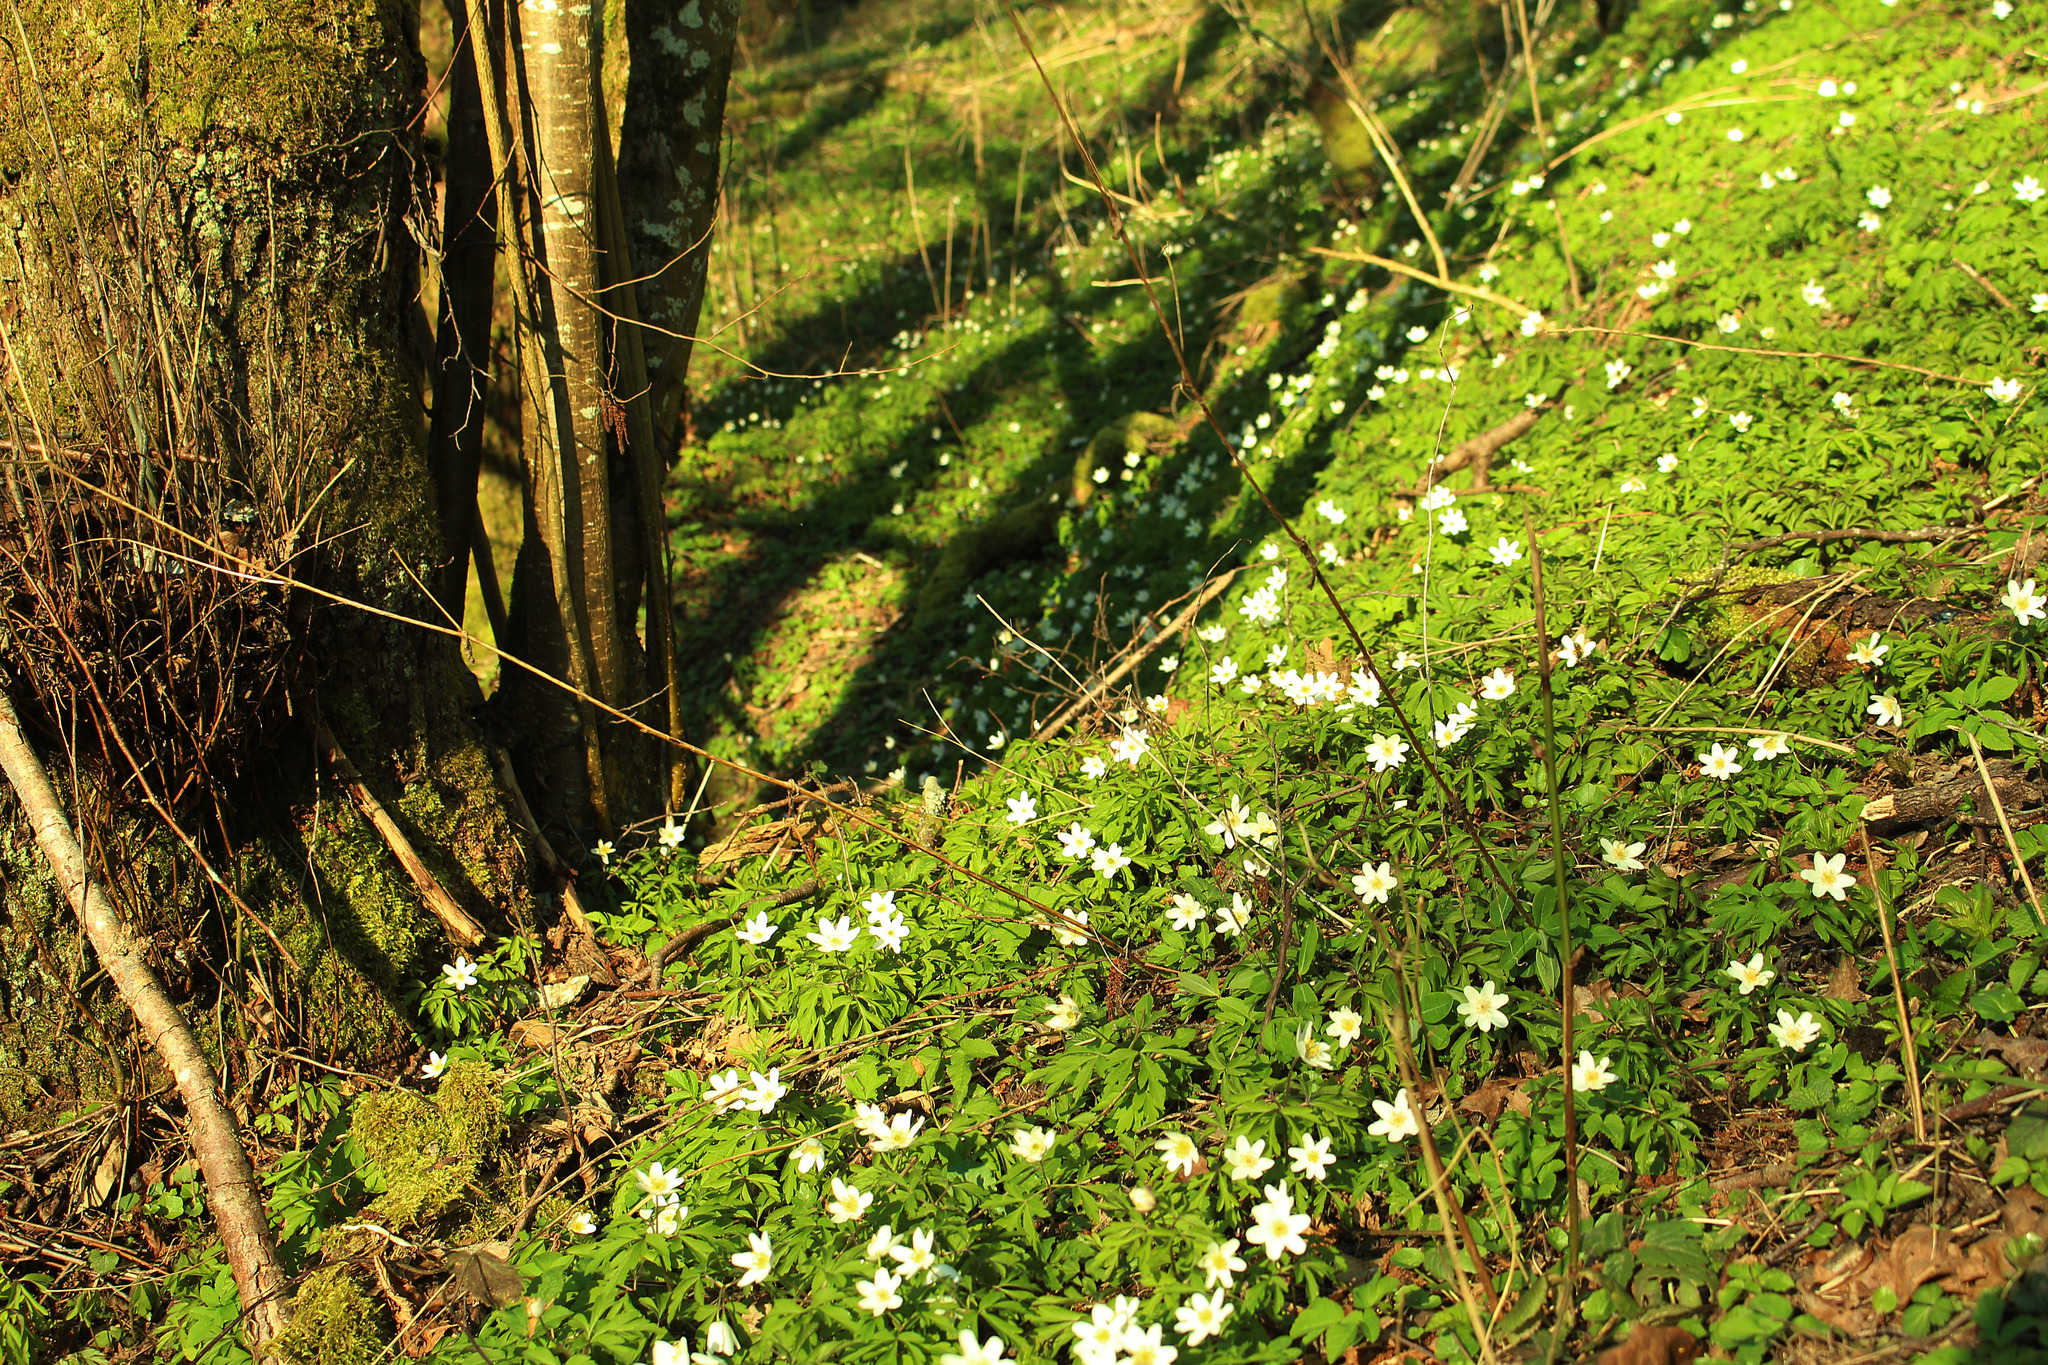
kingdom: Plantae
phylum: Tracheophyta
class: Magnoliopsida
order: Ranunculales
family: Ranunculaceae
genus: Anemone
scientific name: Anemone nemorosa
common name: Wood anemone
